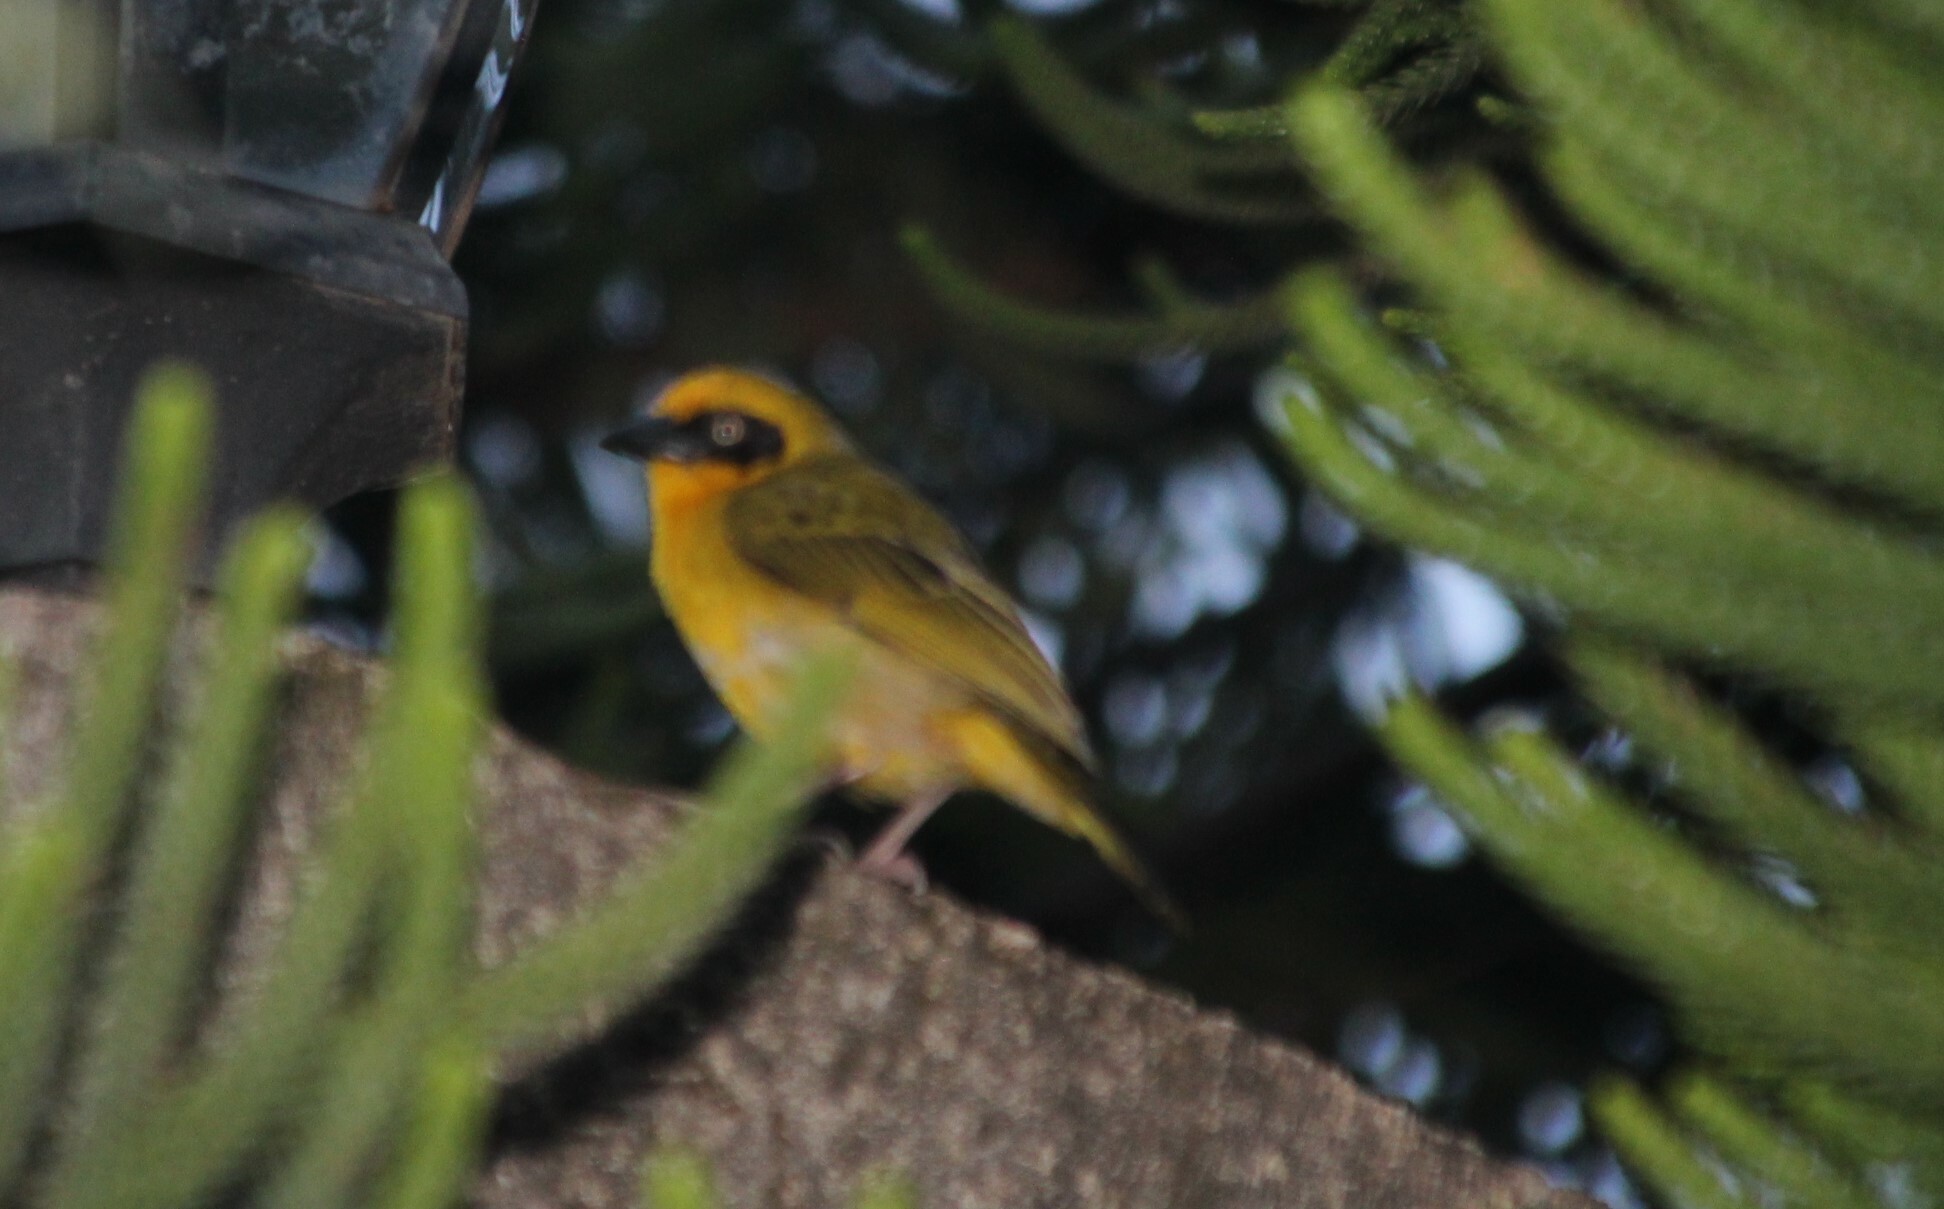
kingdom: Animalia
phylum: Chordata
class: Aves
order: Passeriformes
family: Ploceidae
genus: Ploceus
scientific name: Ploceus baglafecht
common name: Baglafecht weaver
